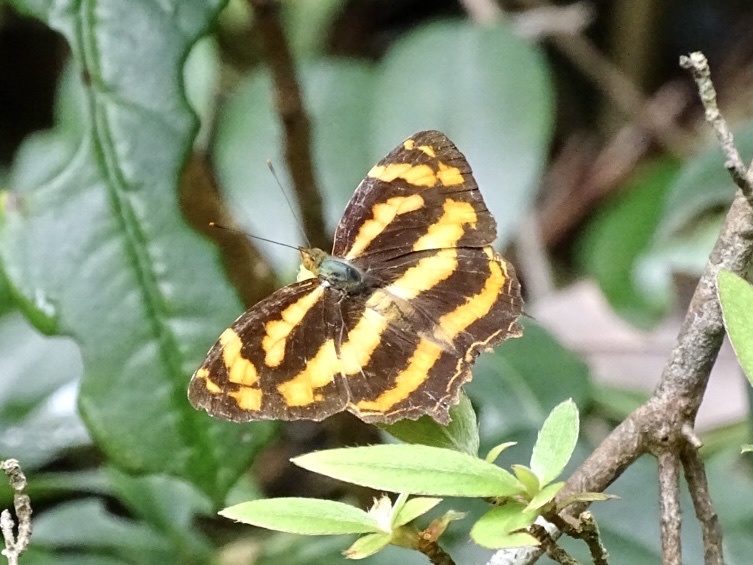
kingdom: Animalia
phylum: Arthropoda
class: Insecta
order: Lepidoptera
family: Nymphalidae
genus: Symbrenthia
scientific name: Symbrenthia hypselis
